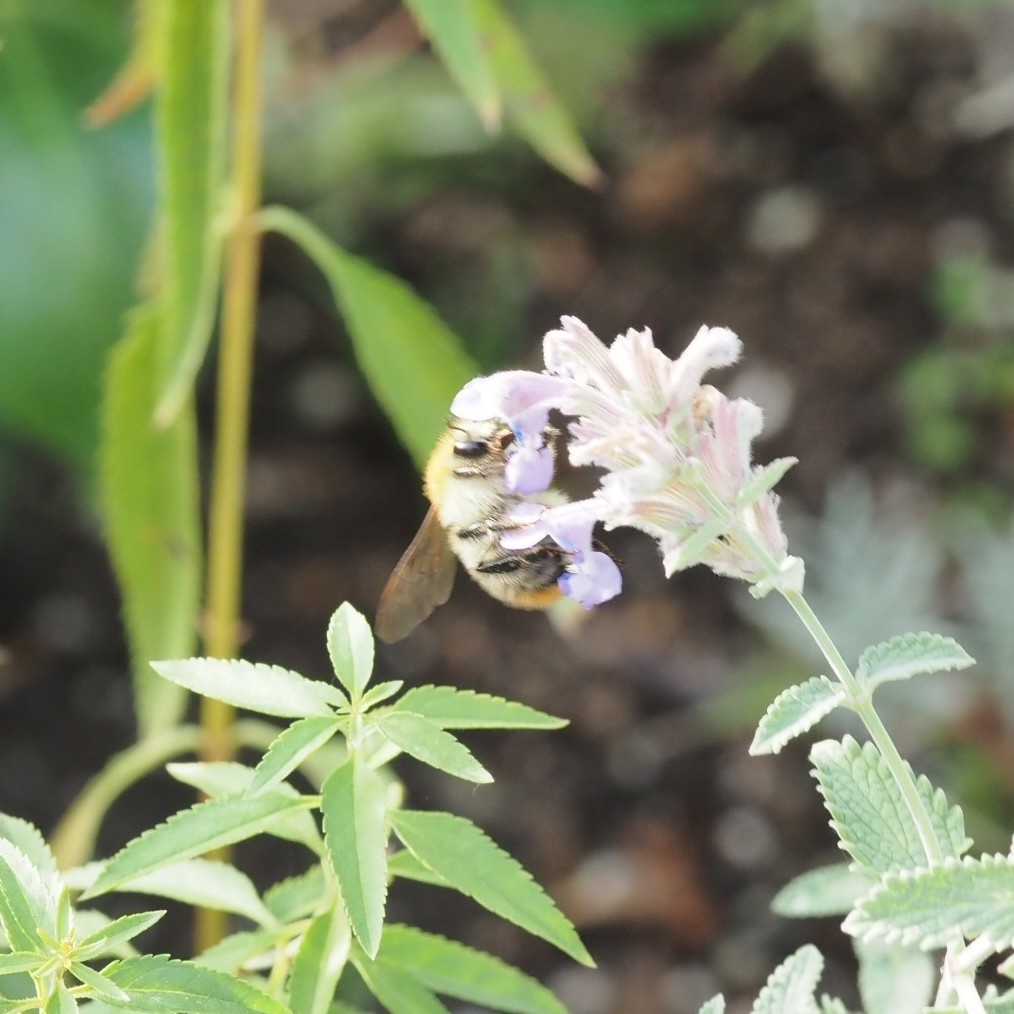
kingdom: Animalia
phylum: Arthropoda
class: Insecta
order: Hymenoptera
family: Apidae
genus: Bombus
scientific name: Bombus pascuorum
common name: Common carder bee
